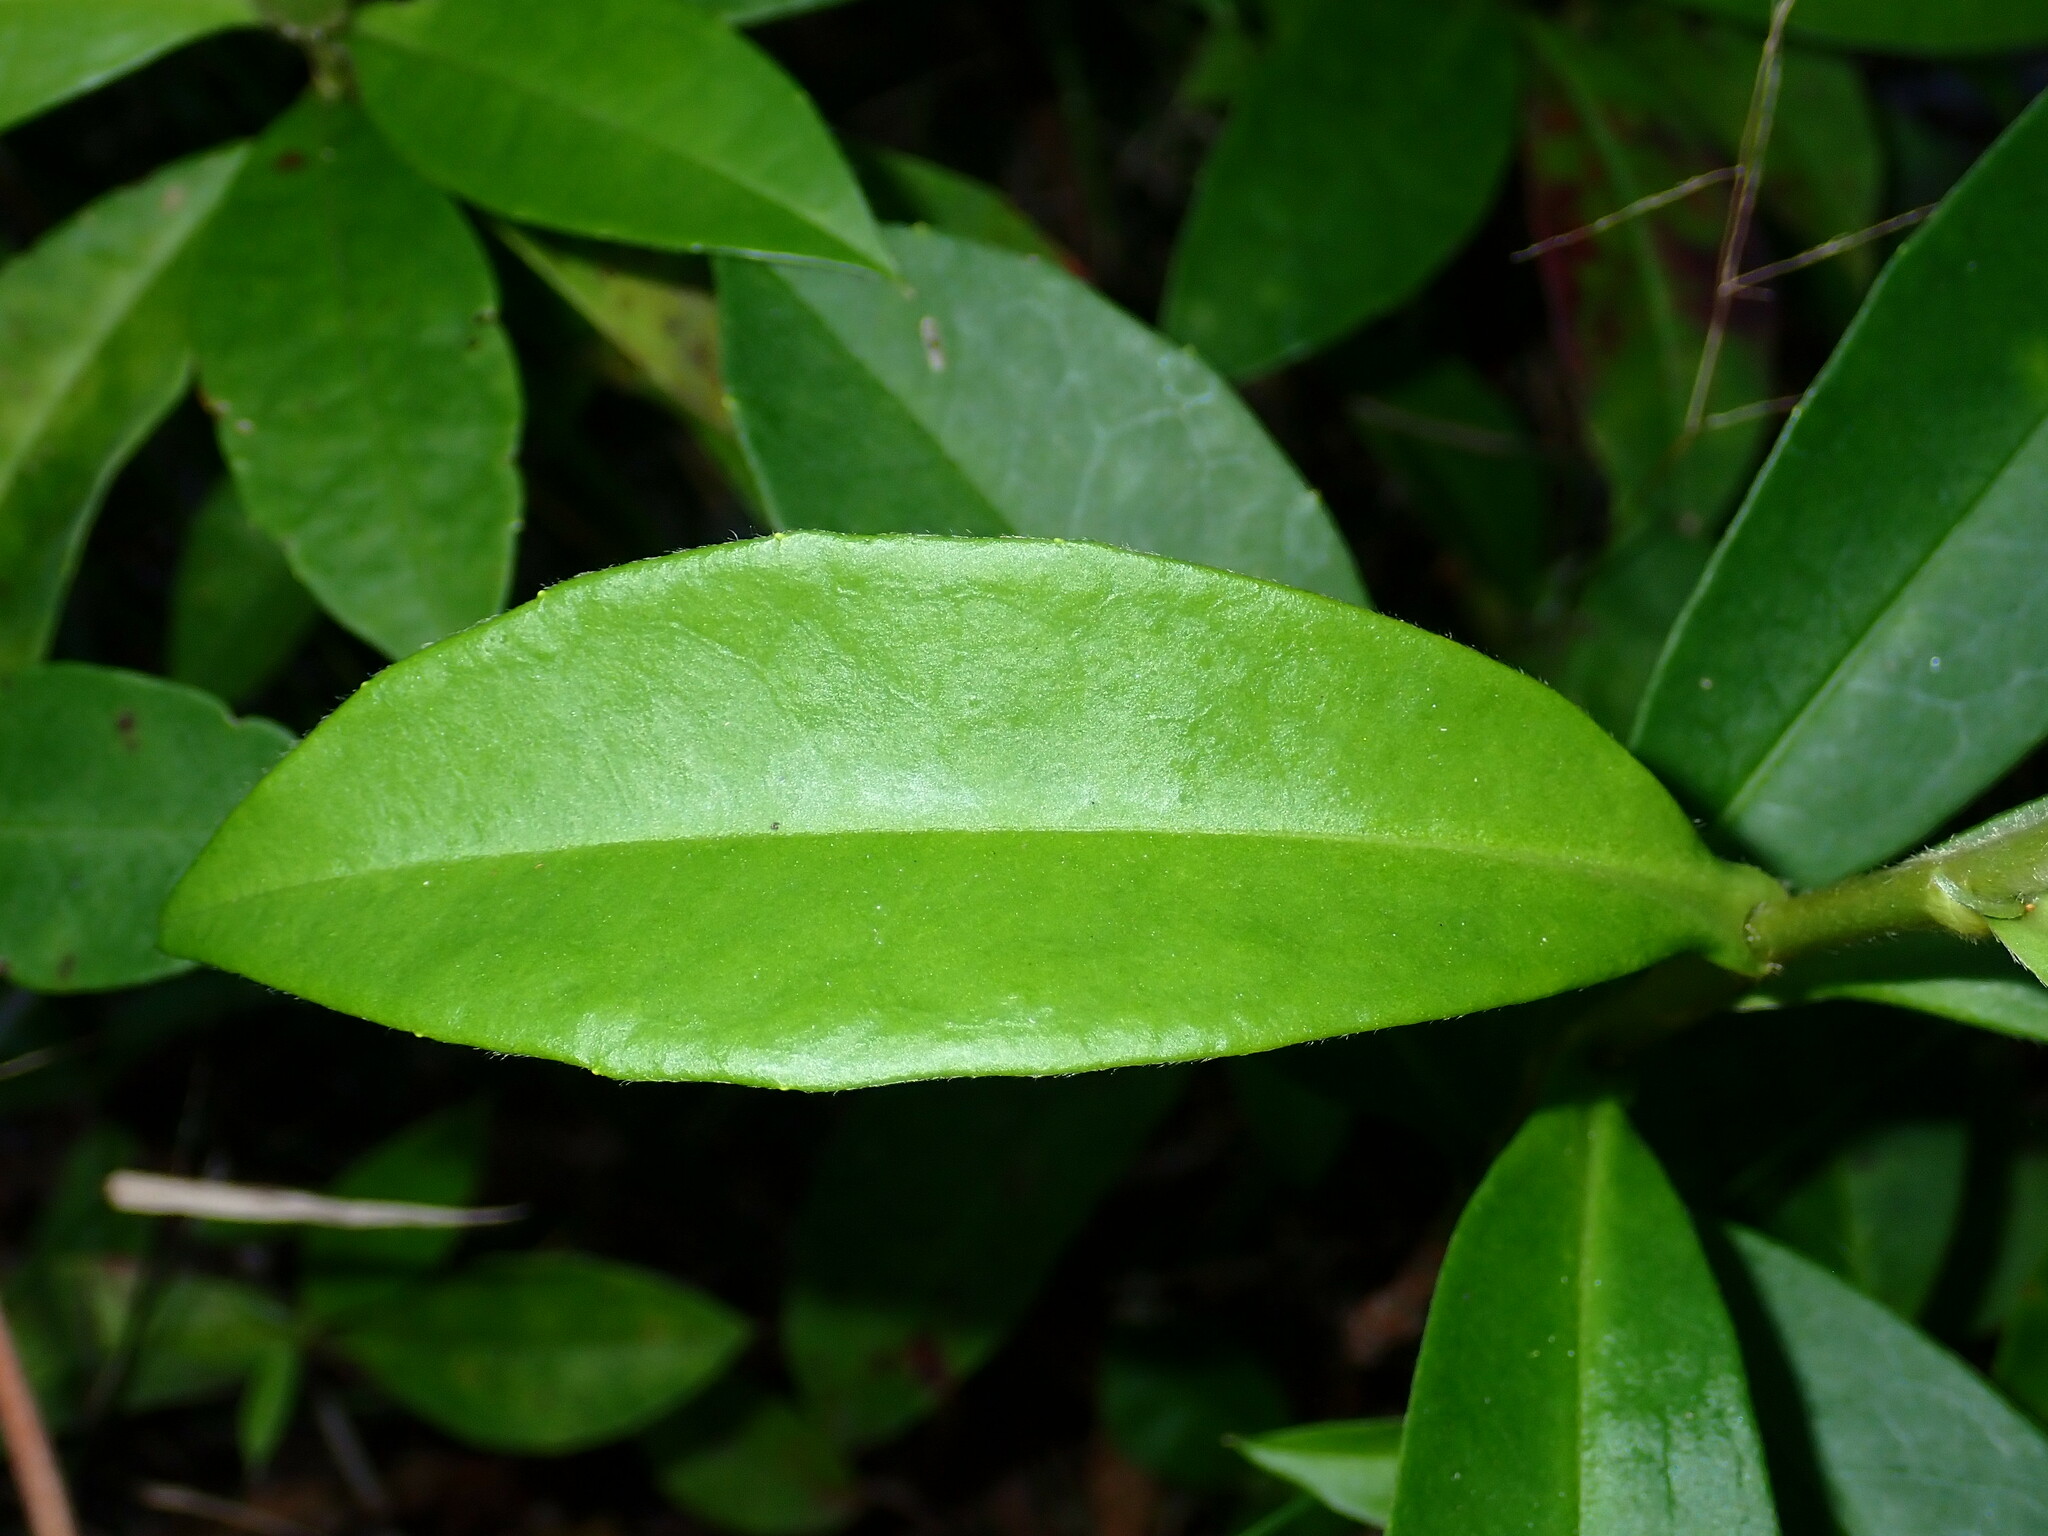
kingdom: Plantae
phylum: Tracheophyta
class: Magnoliopsida
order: Dilleniales
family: Dilleniaceae
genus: Hibbertia
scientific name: Hibbertia scandens
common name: Climbing guinea-flower
